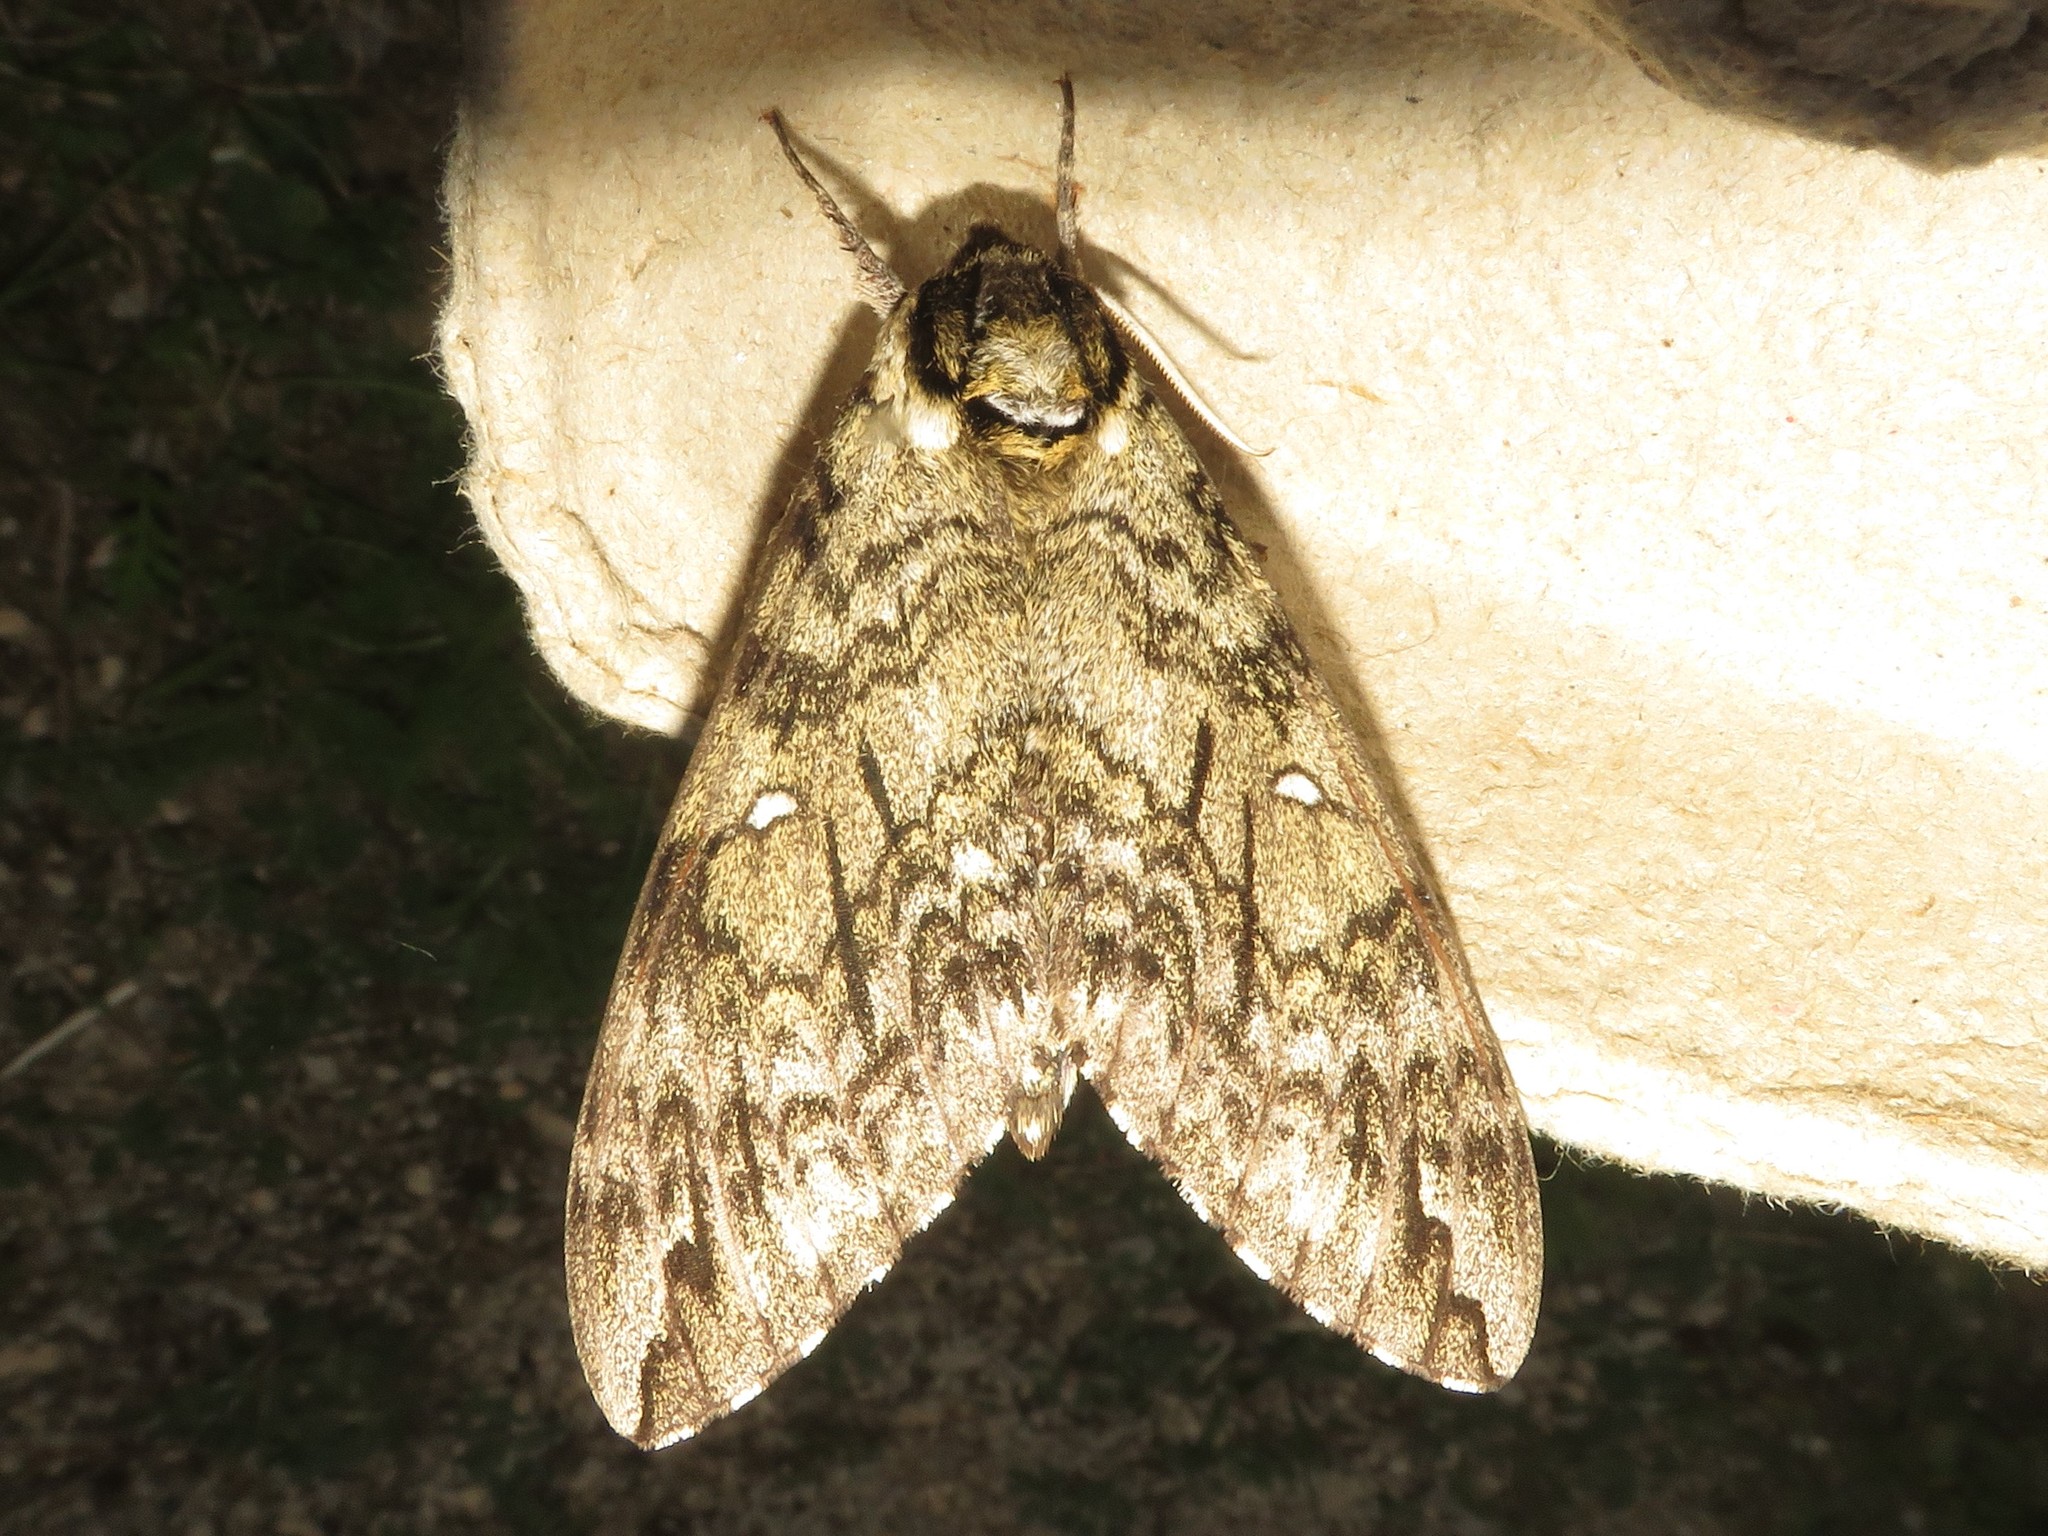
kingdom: Animalia
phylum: Arthropoda
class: Insecta
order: Lepidoptera
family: Sphingidae
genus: Ceratomia
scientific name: Ceratomia undulosa
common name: Waved sphinx
